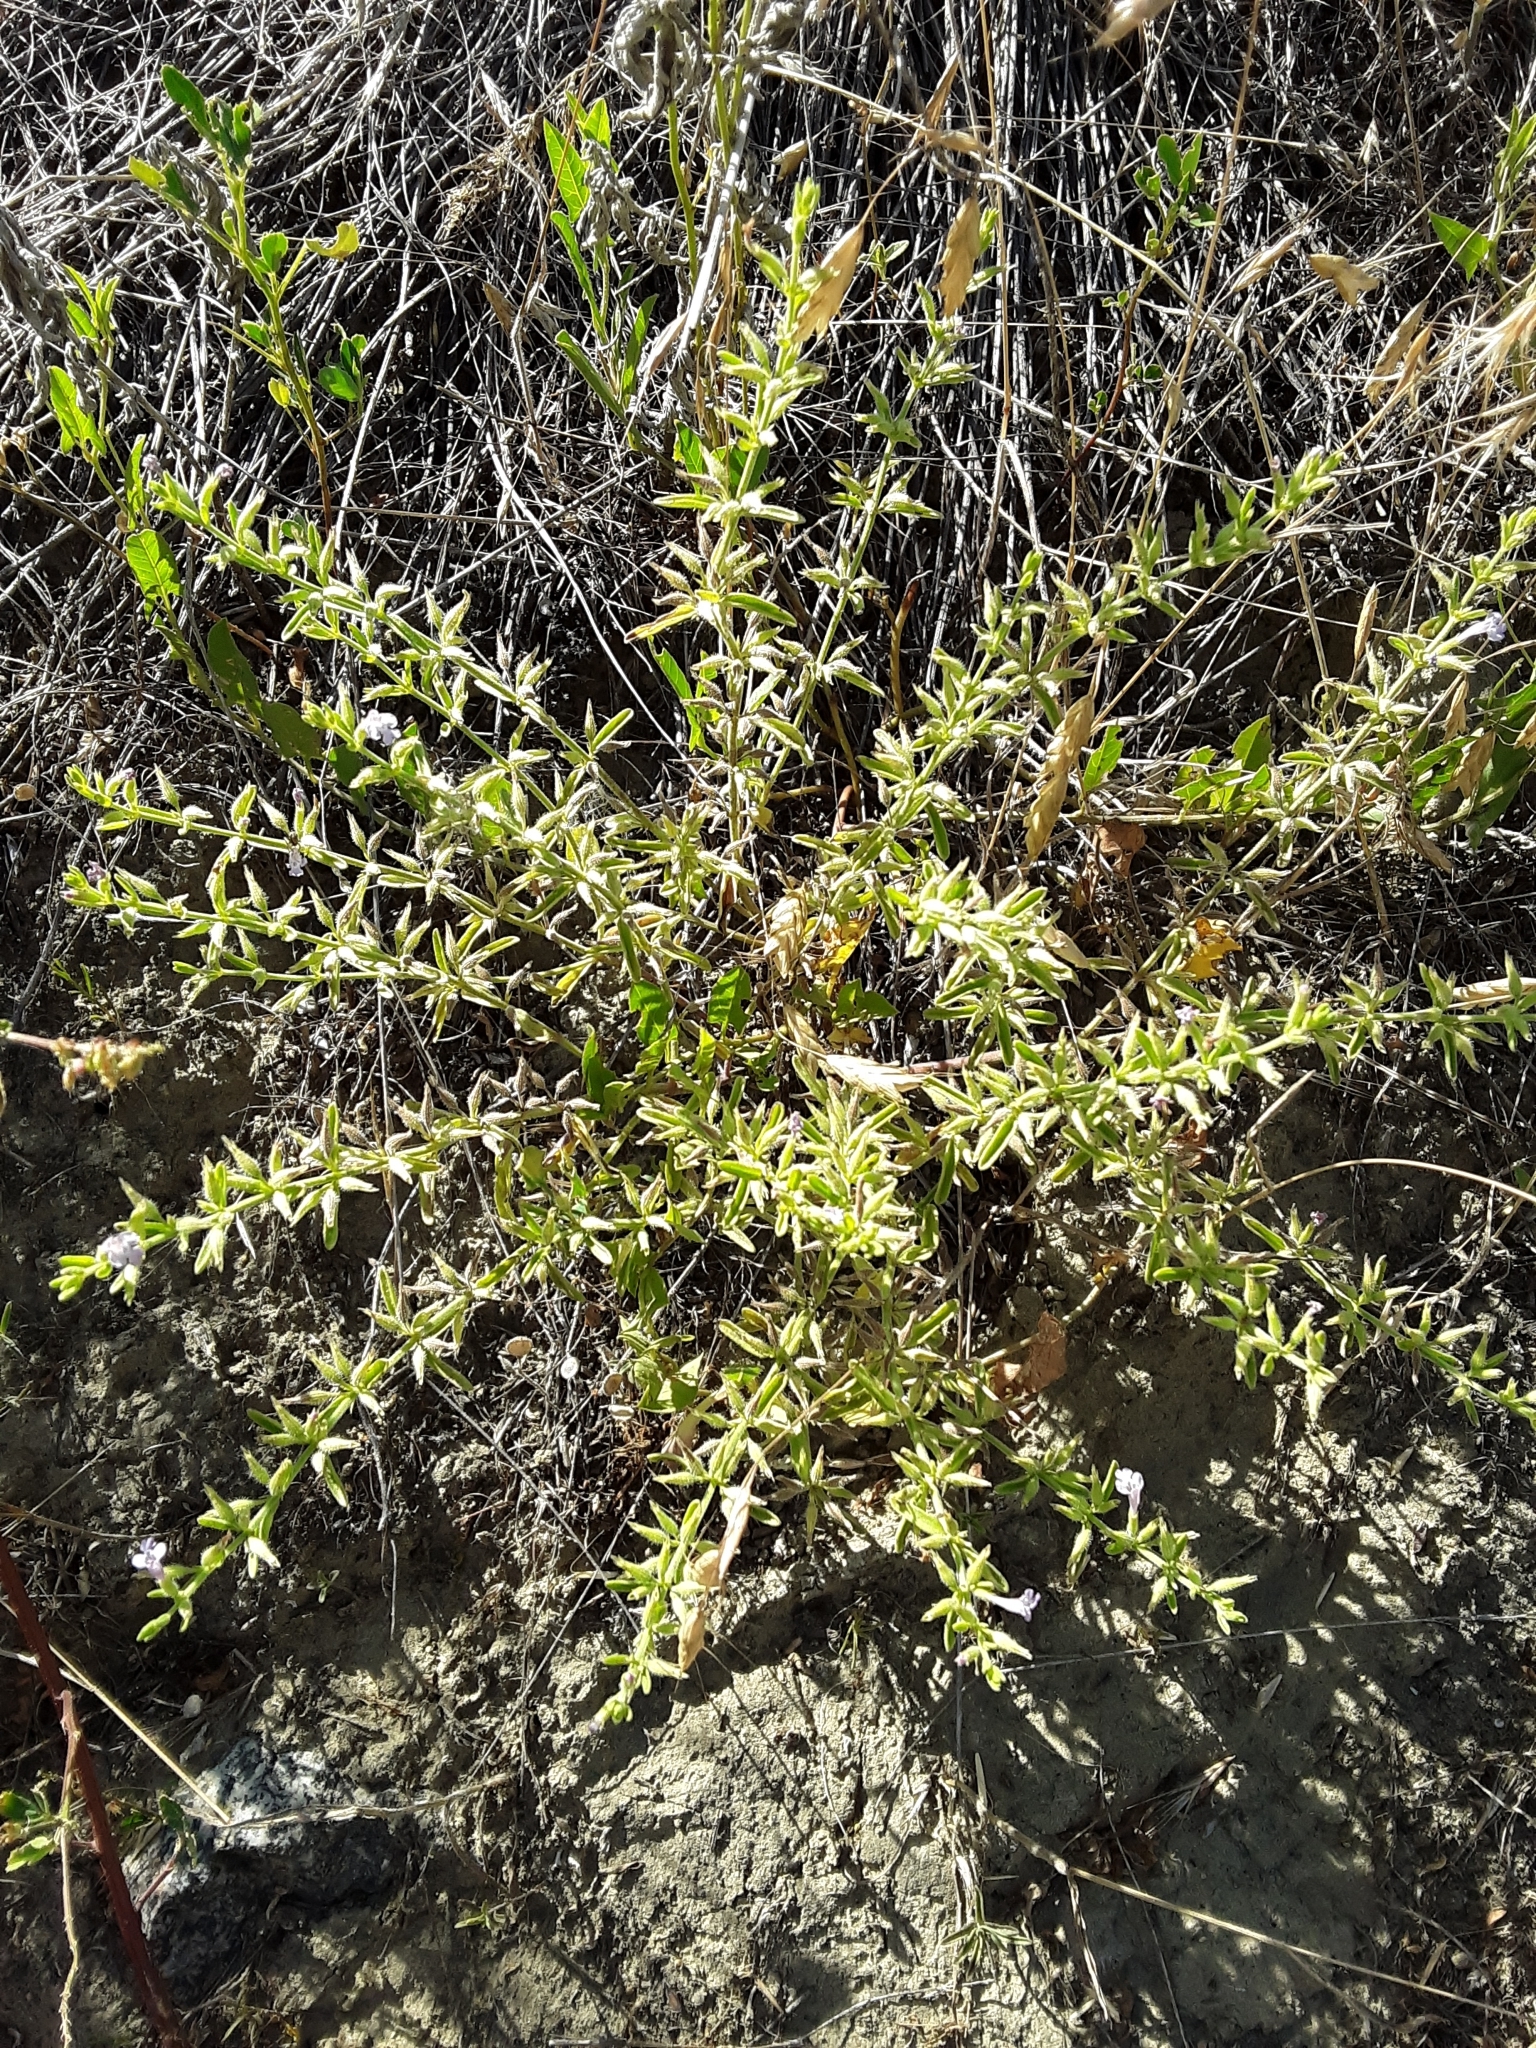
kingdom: Plantae
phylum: Tracheophyta
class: Magnoliopsida
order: Lamiales
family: Lamiaceae
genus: Hedeoma
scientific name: Hedeoma drummondii
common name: New mexico pennyroyal
